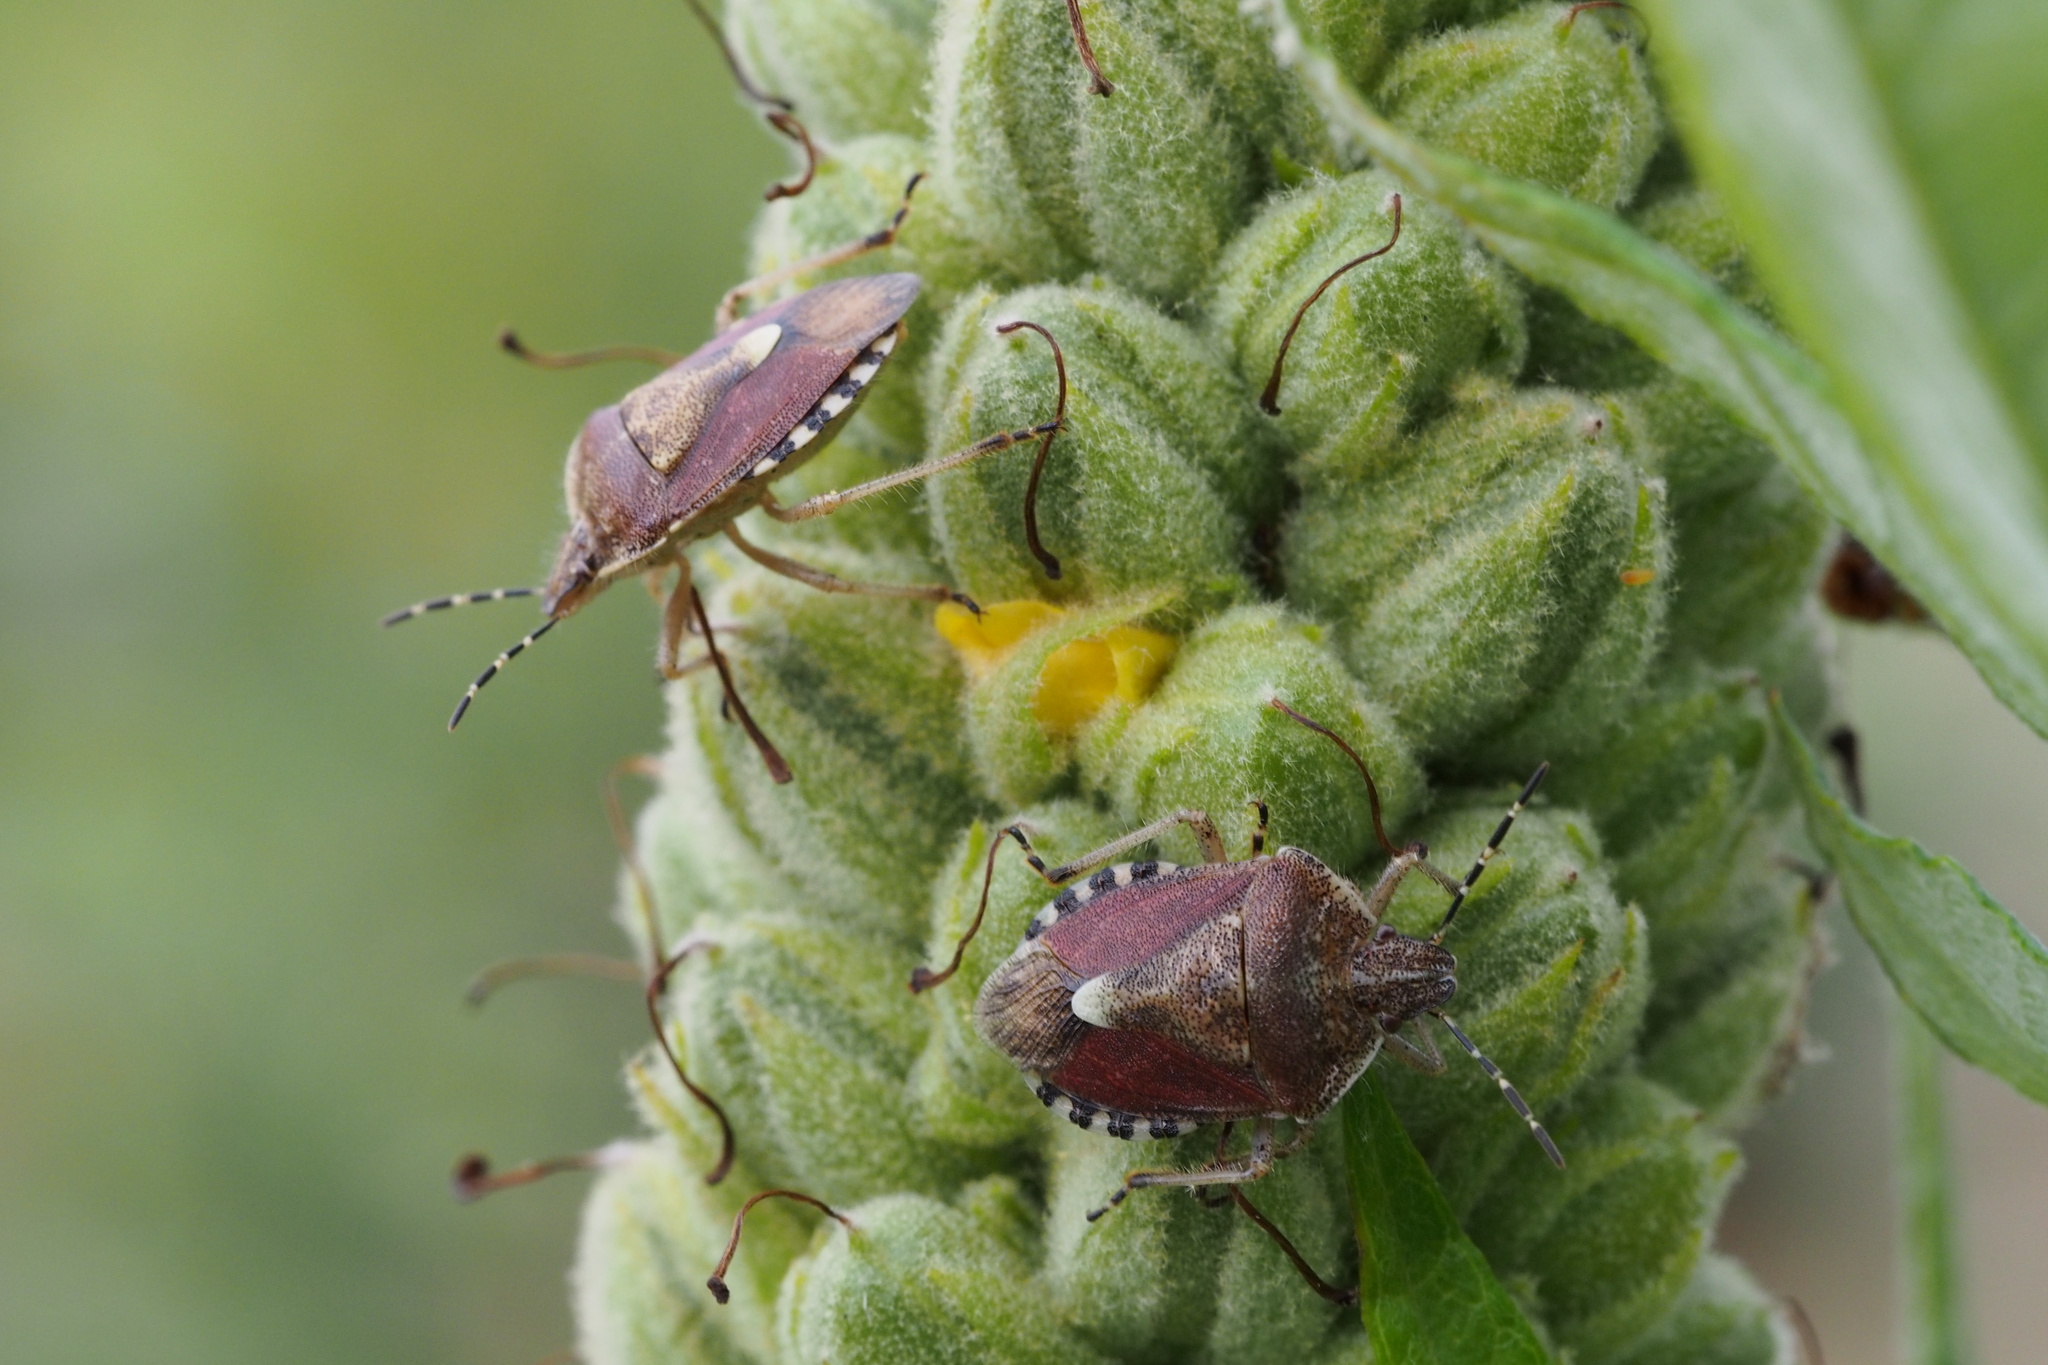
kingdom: Animalia
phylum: Arthropoda
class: Insecta
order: Hemiptera
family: Pentatomidae
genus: Dolycoris
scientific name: Dolycoris baccarum
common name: Sloe bug
